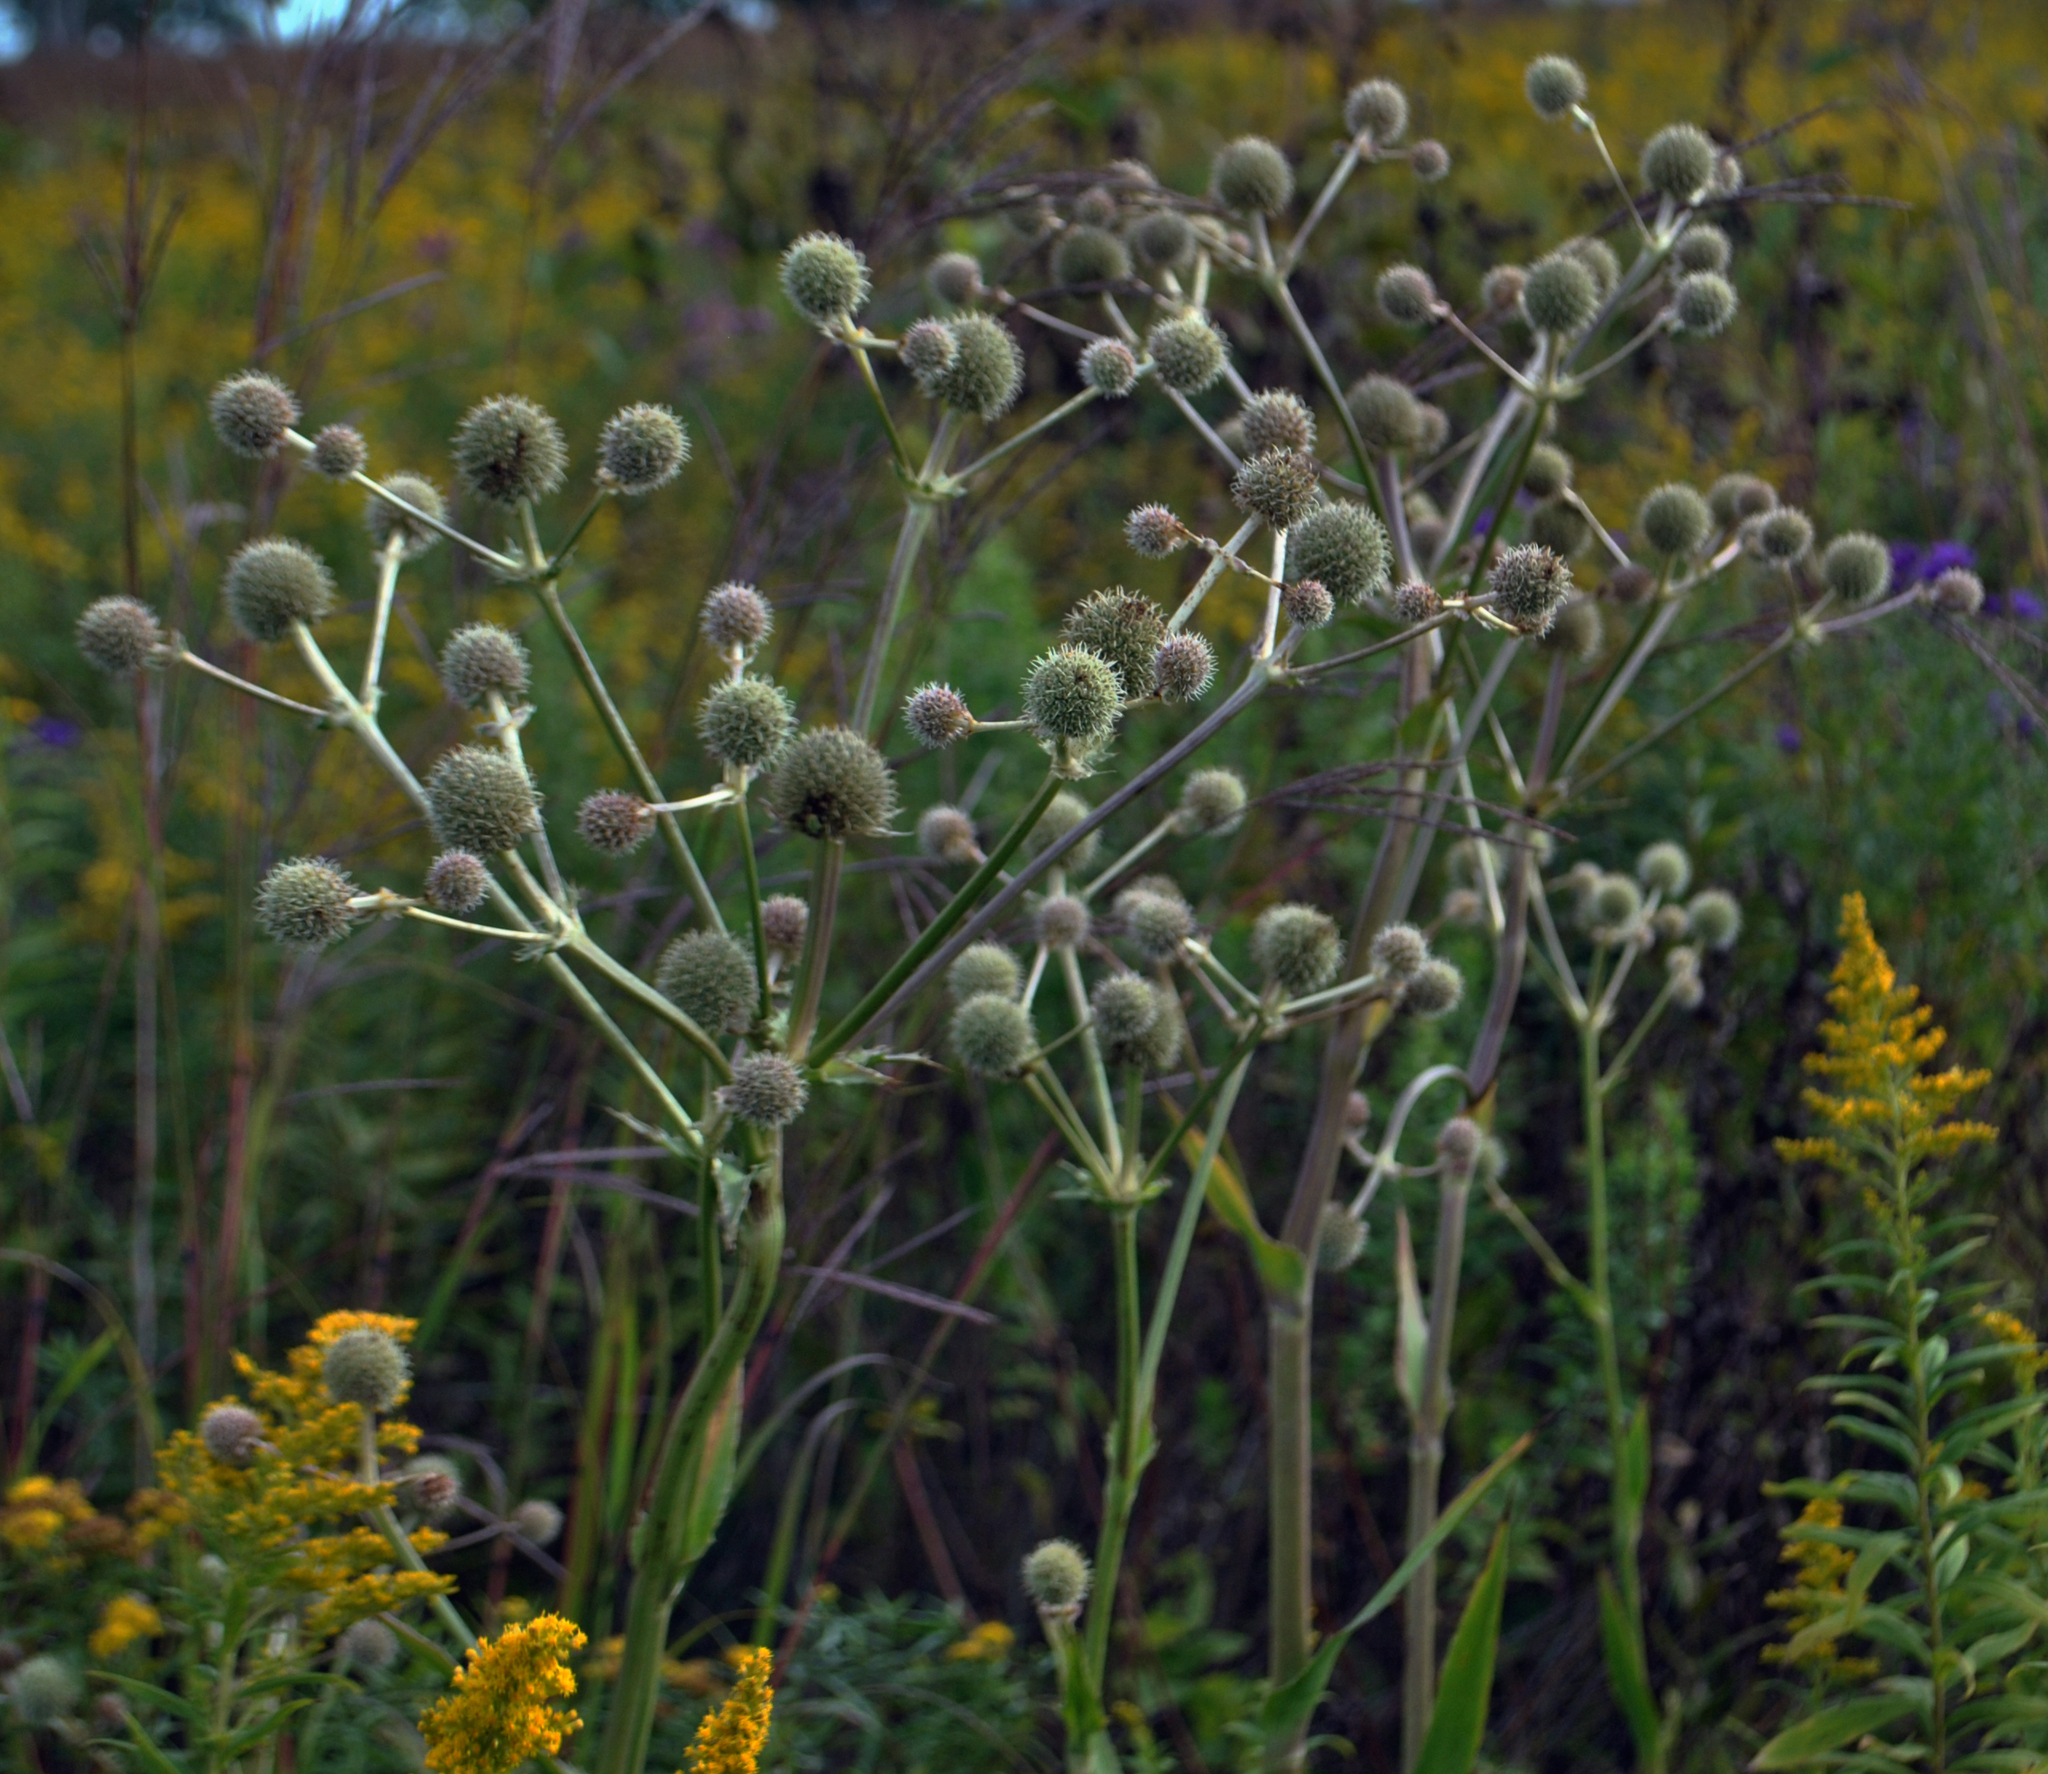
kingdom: Plantae
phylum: Tracheophyta
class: Magnoliopsida
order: Apiales
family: Apiaceae
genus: Eryngium
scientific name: Eryngium yuccifolium
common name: Button eryngo
